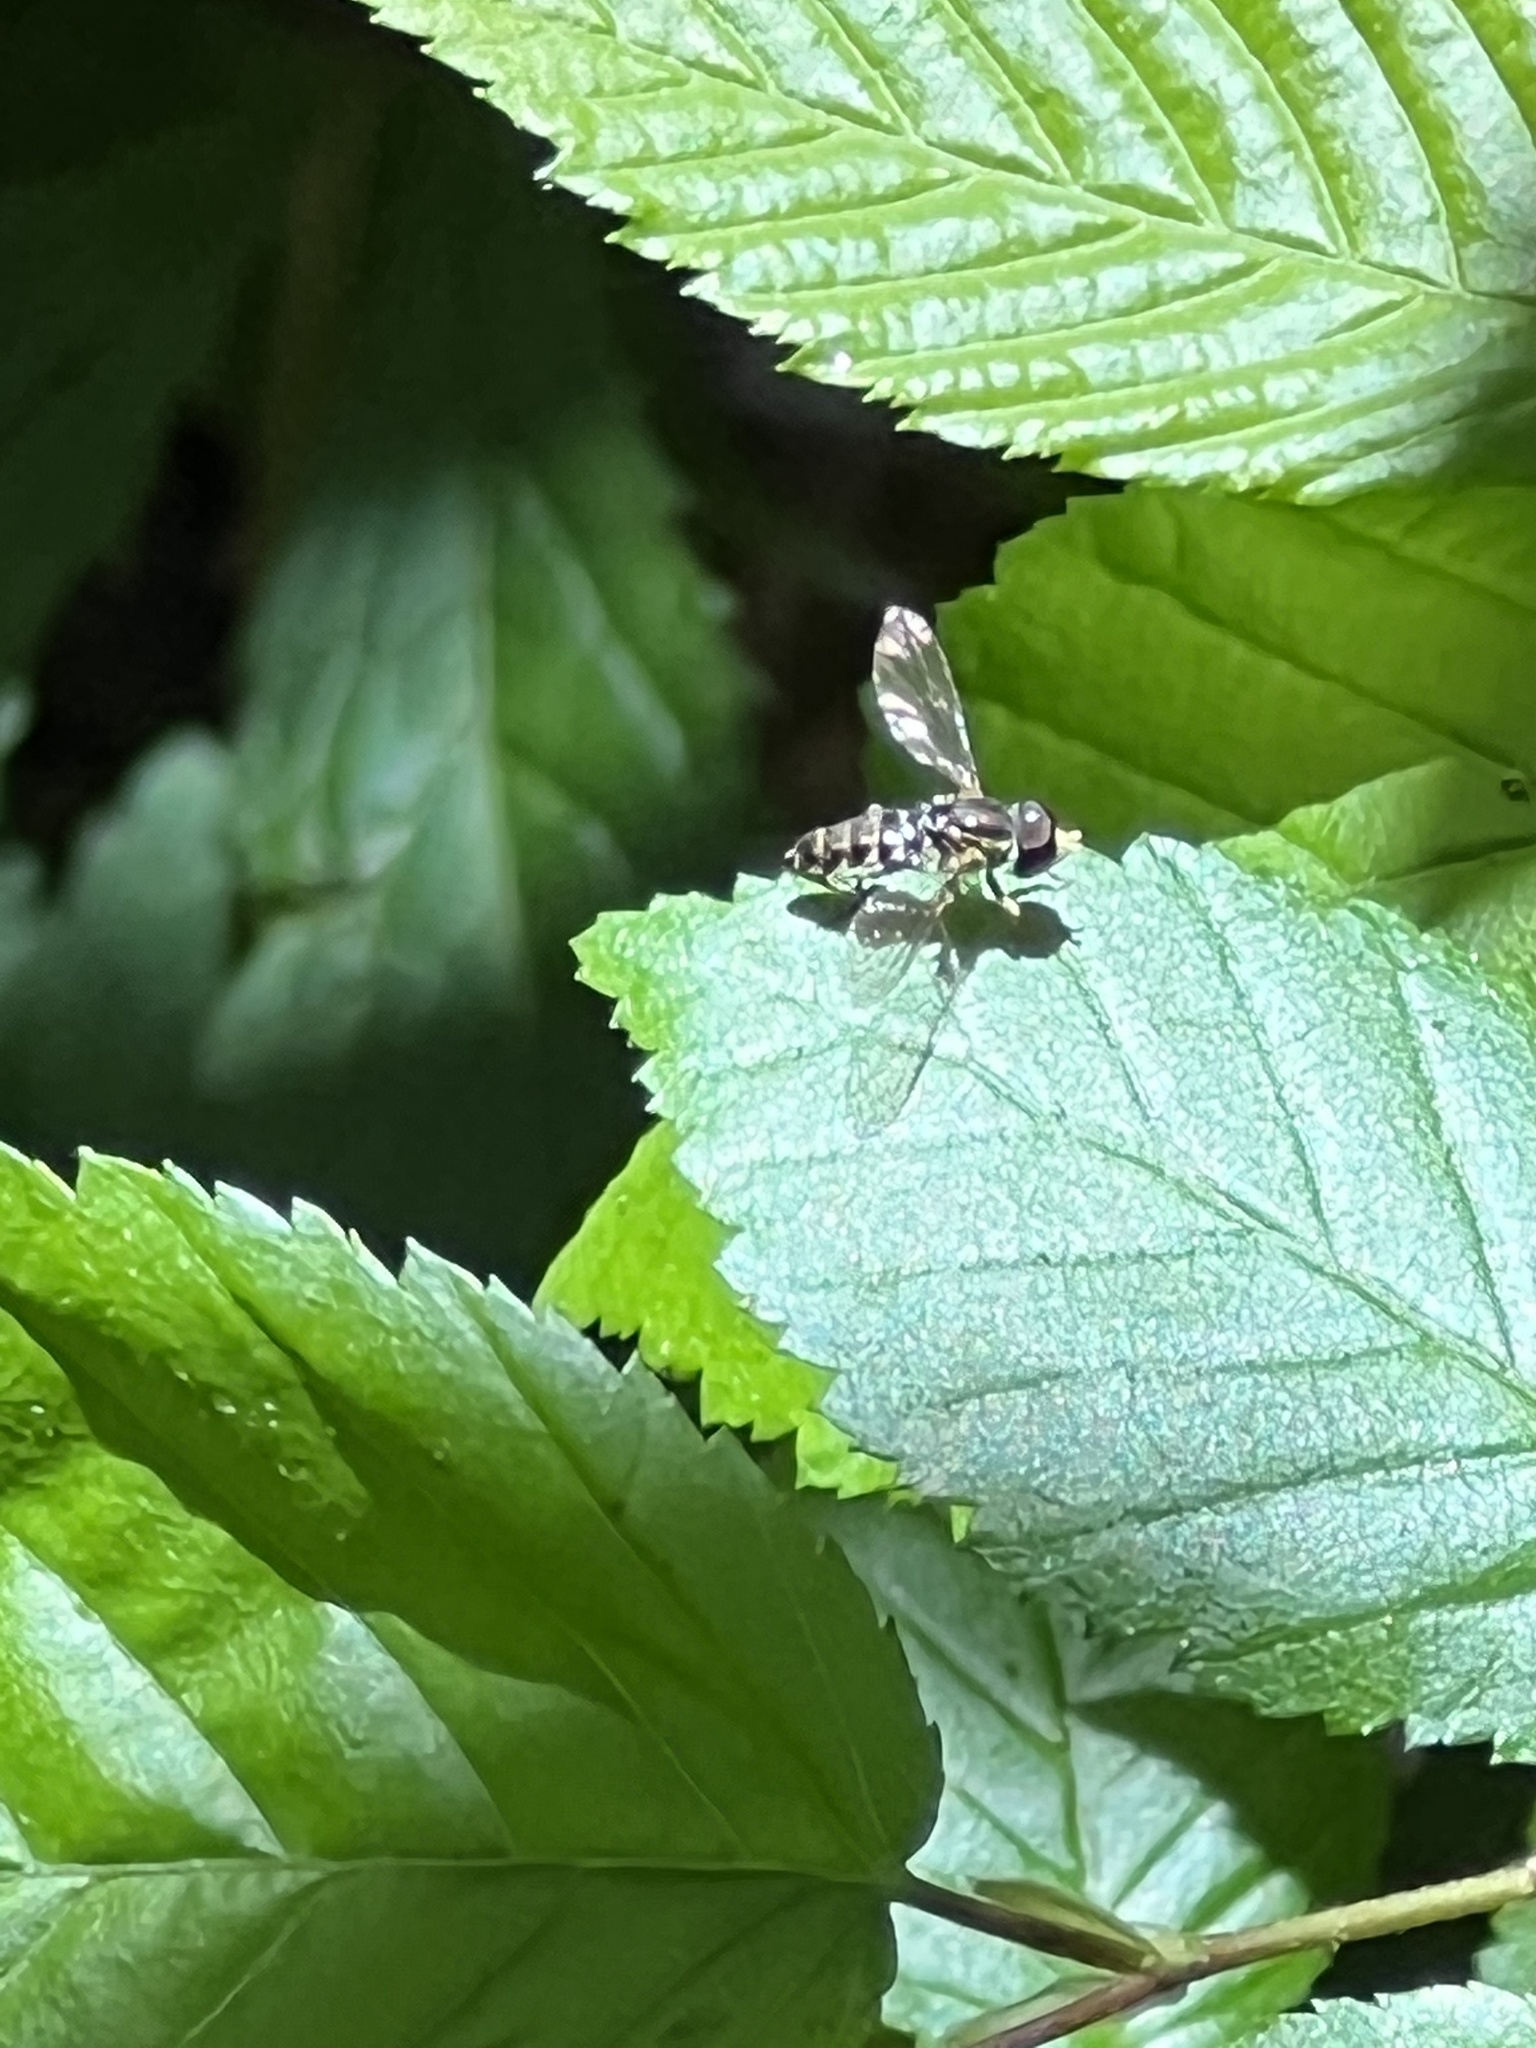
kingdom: Animalia
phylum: Arthropoda
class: Insecta
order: Diptera
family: Syrphidae
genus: Toxomerus
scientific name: Toxomerus geminatus
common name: Eastern calligrapher
